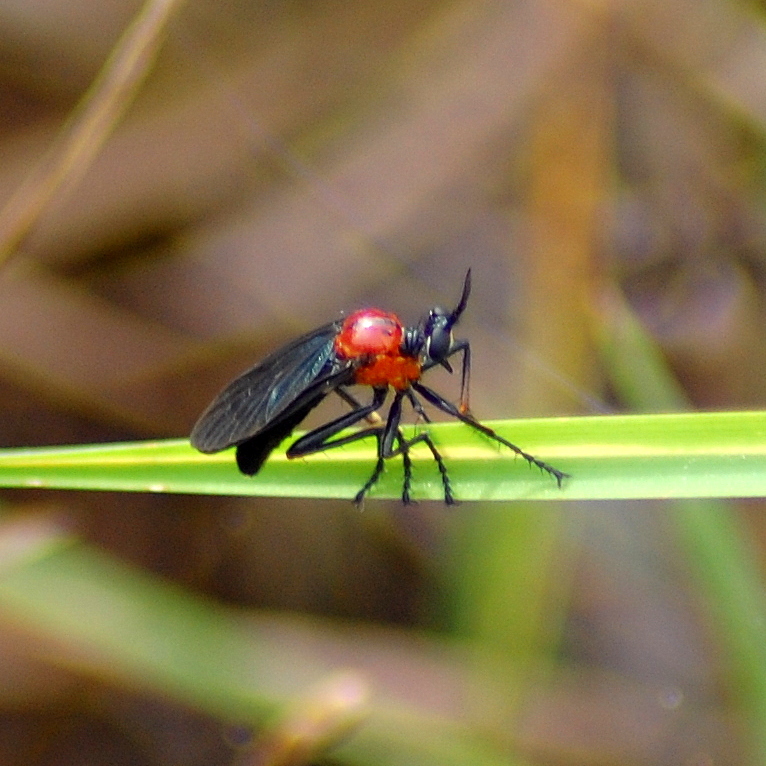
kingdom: Animalia
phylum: Arthropoda
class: Insecta
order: Diptera
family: Asilidae
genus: Amorimius
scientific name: Amorimius bicolor
